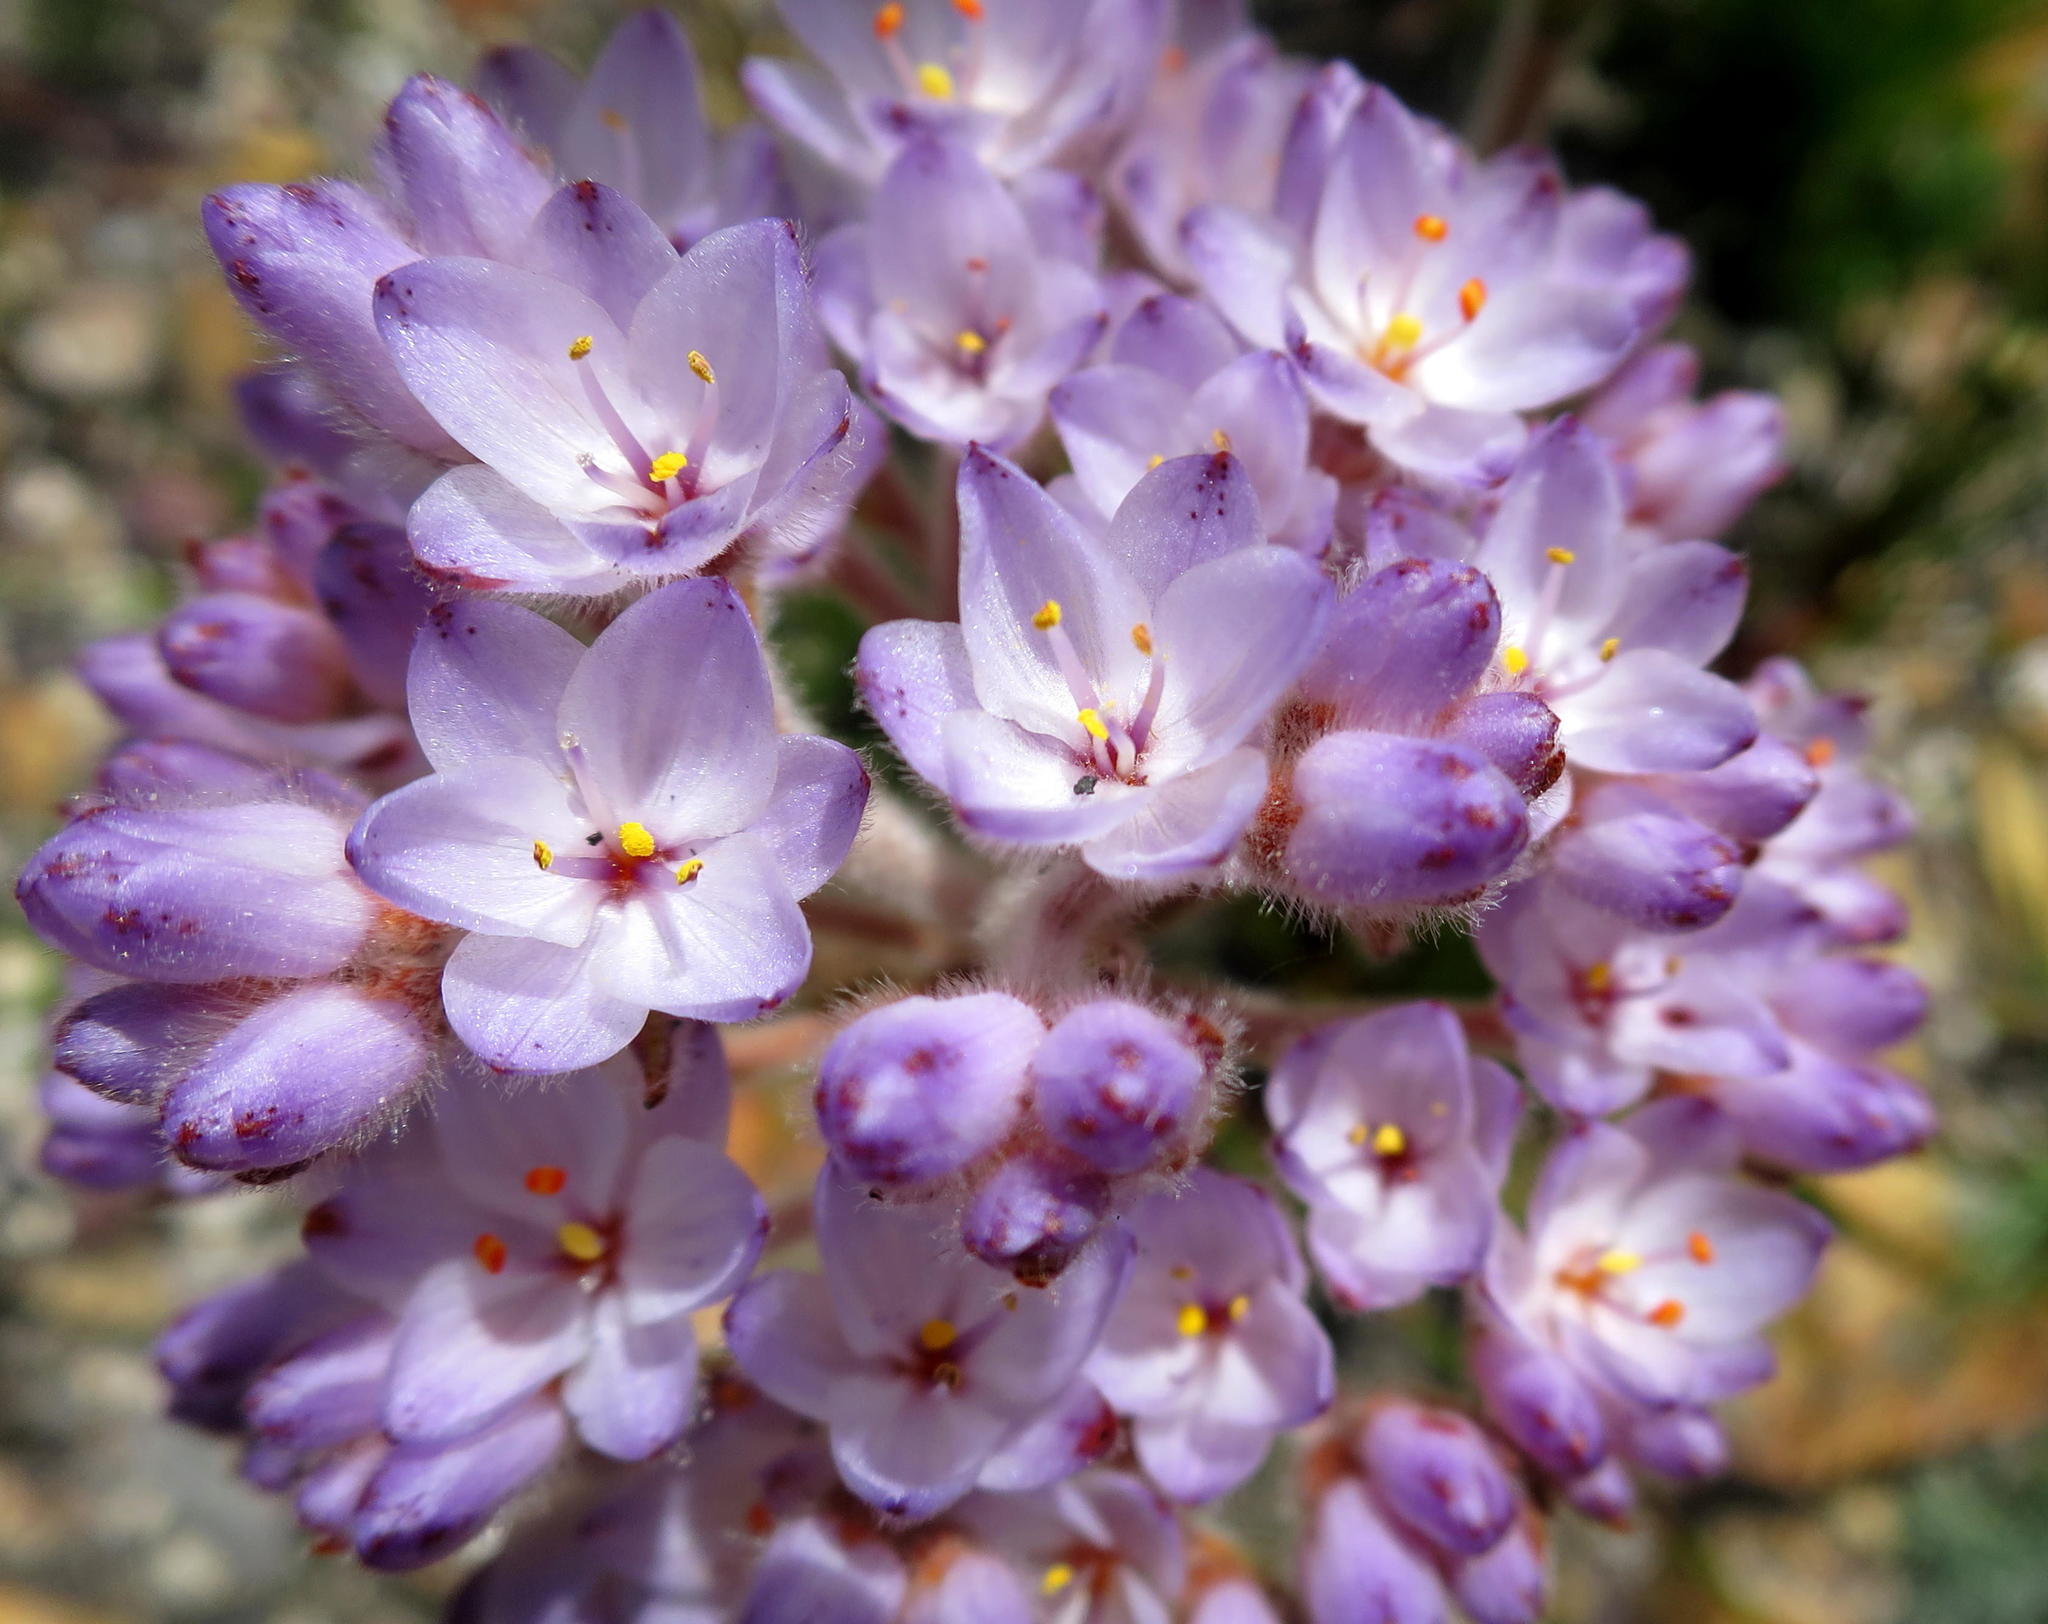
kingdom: Plantae
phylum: Tracheophyta
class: Liliopsida
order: Commelinales
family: Haemodoraceae
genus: Dilatris
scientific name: Dilatris pillansii
